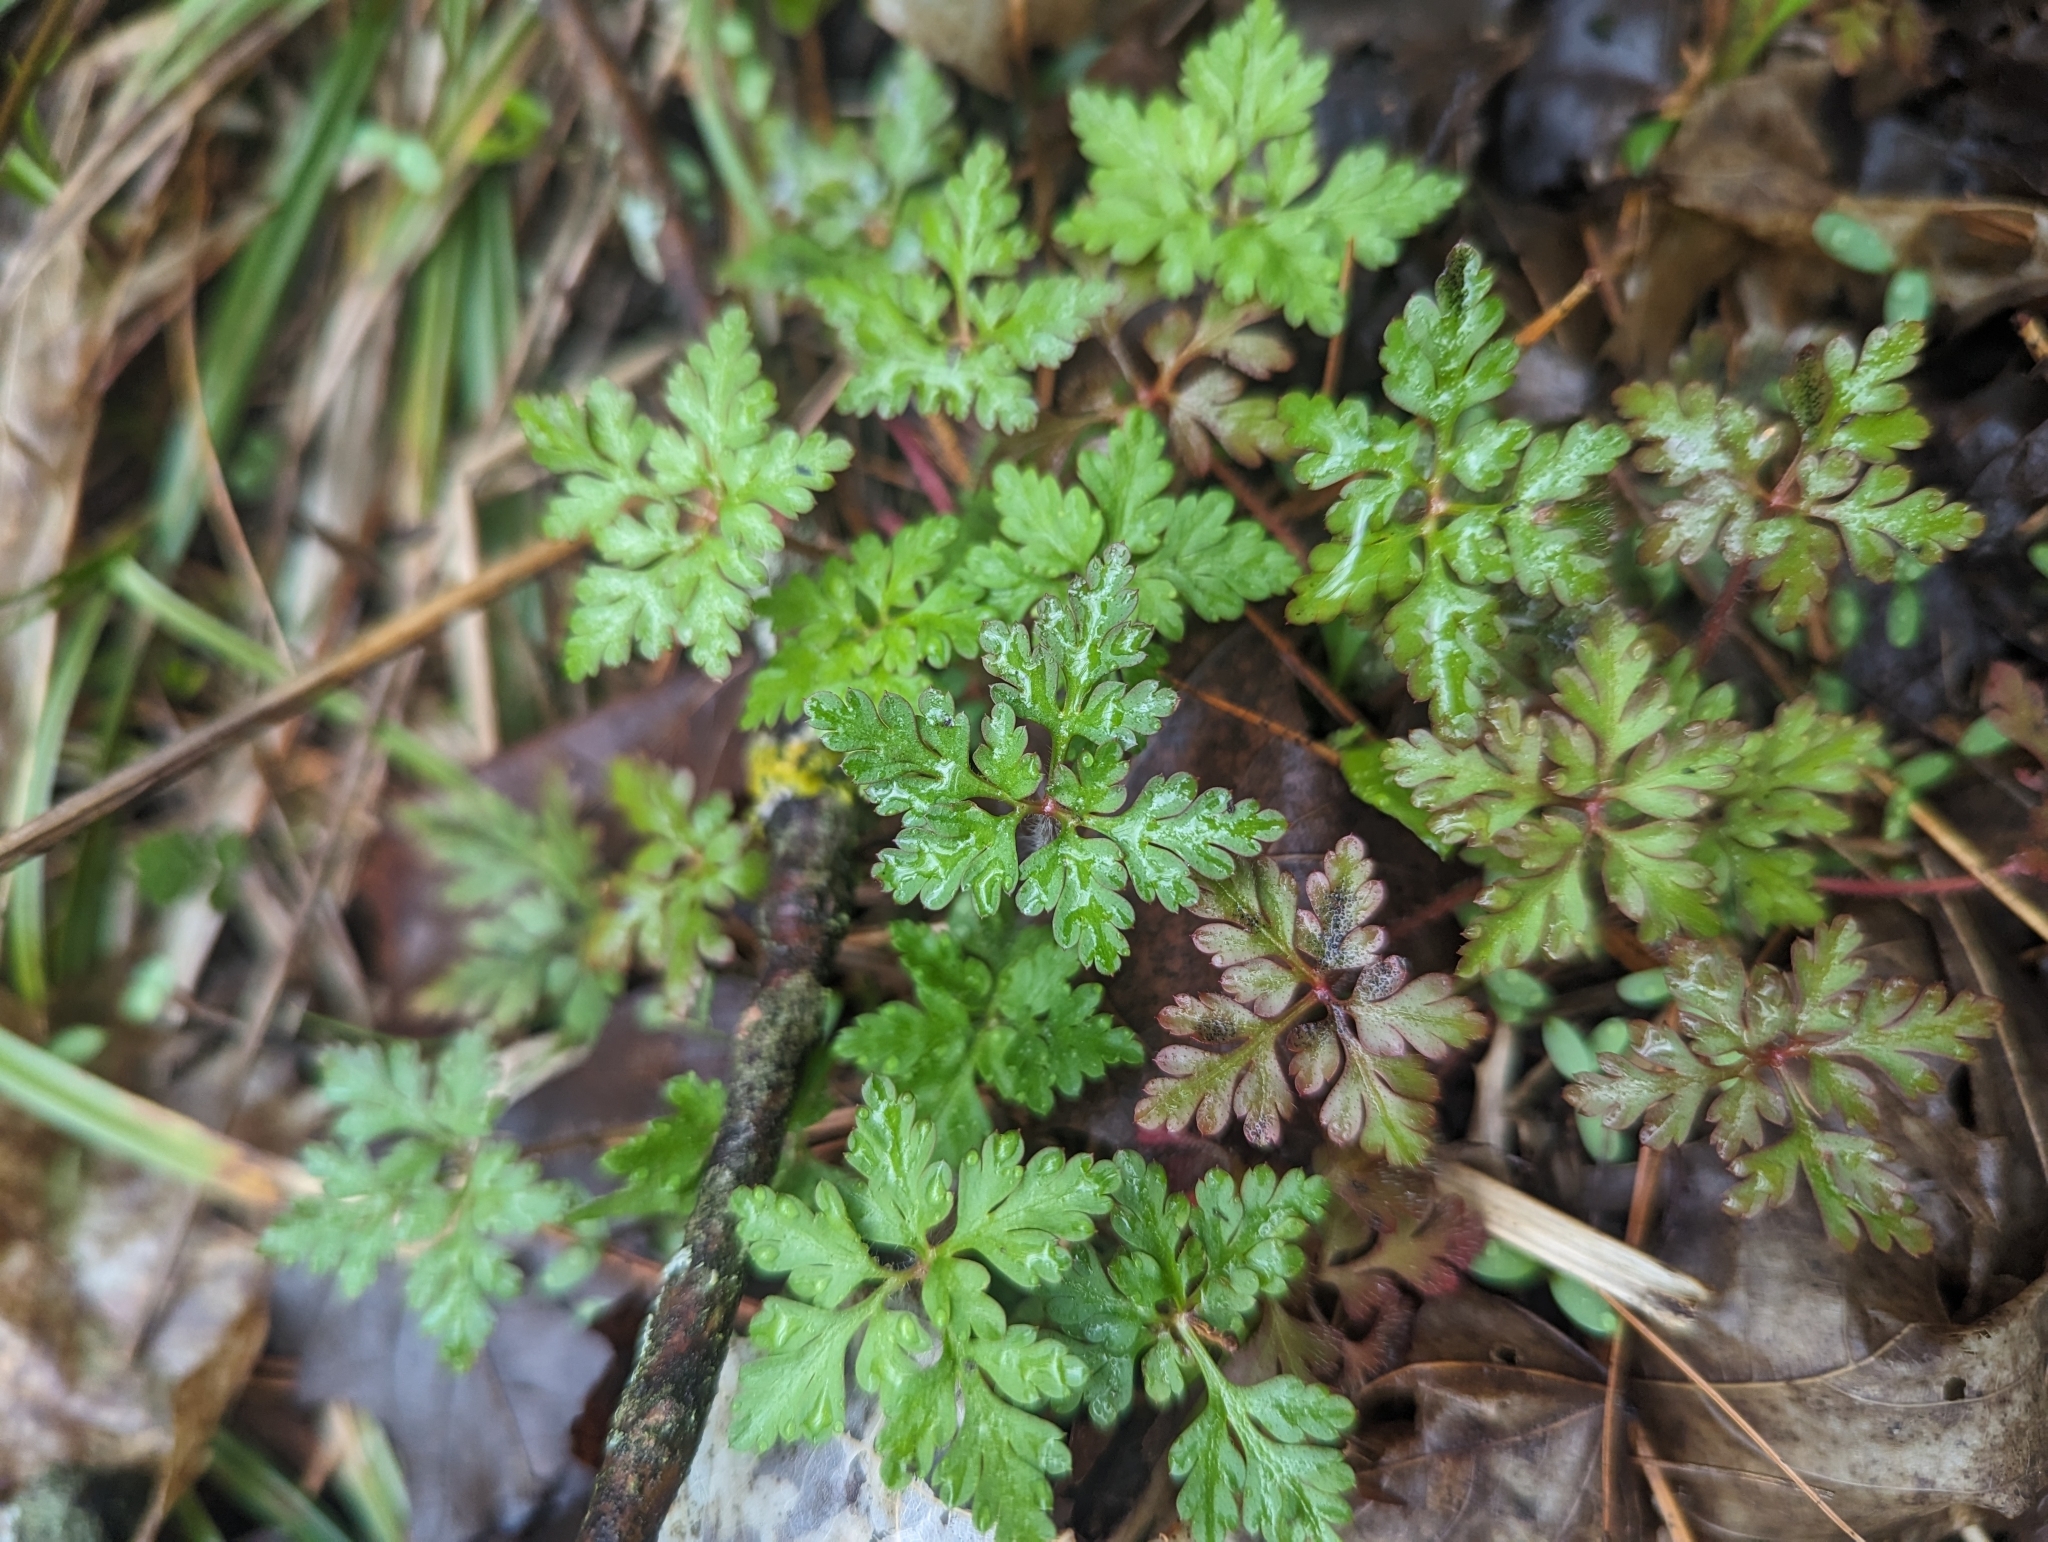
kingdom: Plantae
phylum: Tracheophyta
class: Magnoliopsida
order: Geraniales
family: Geraniaceae
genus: Geranium
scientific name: Geranium robertianum
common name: Herb-robert
